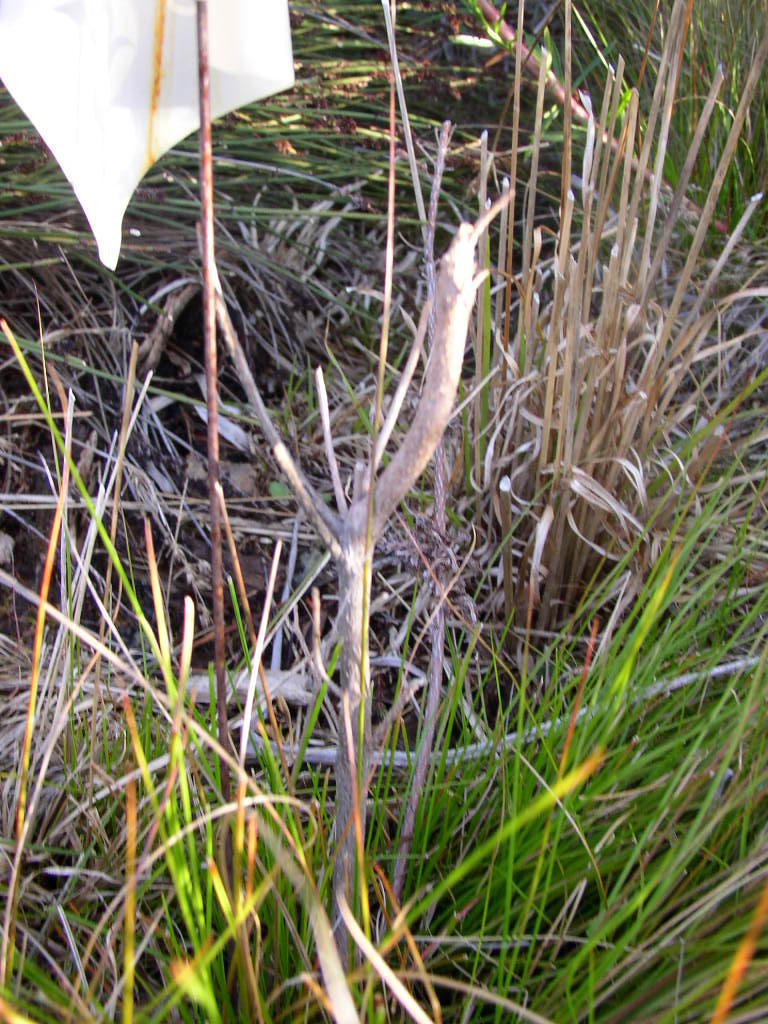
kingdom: Plantae
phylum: Tracheophyta
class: Magnoliopsida
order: Ericales
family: Ericaceae
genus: Erica
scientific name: Erica verticillata
